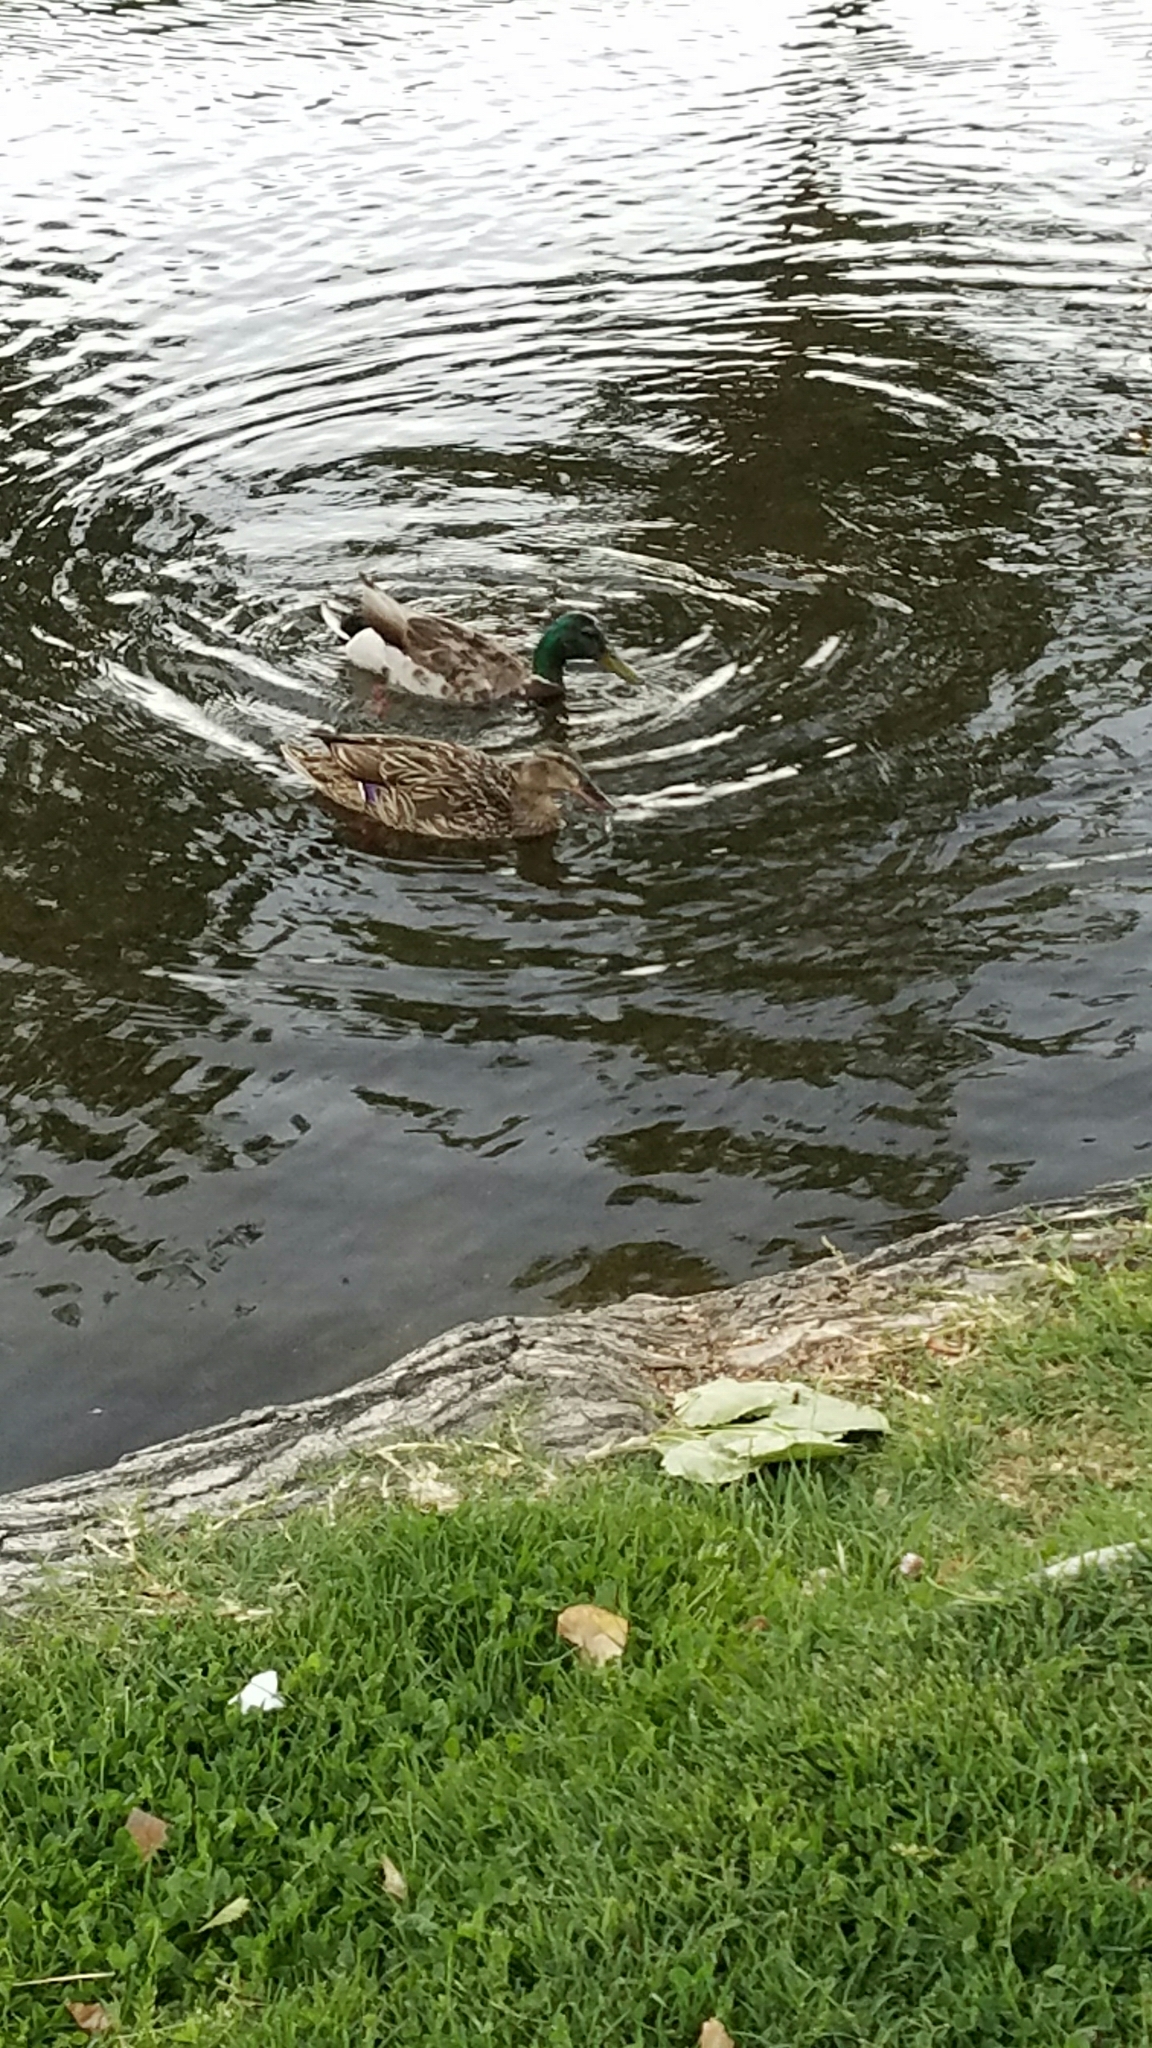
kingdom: Animalia
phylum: Chordata
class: Aves
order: Anseriformes
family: Anatidae
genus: Anas
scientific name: Anas platyrhynchos
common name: Mallard
